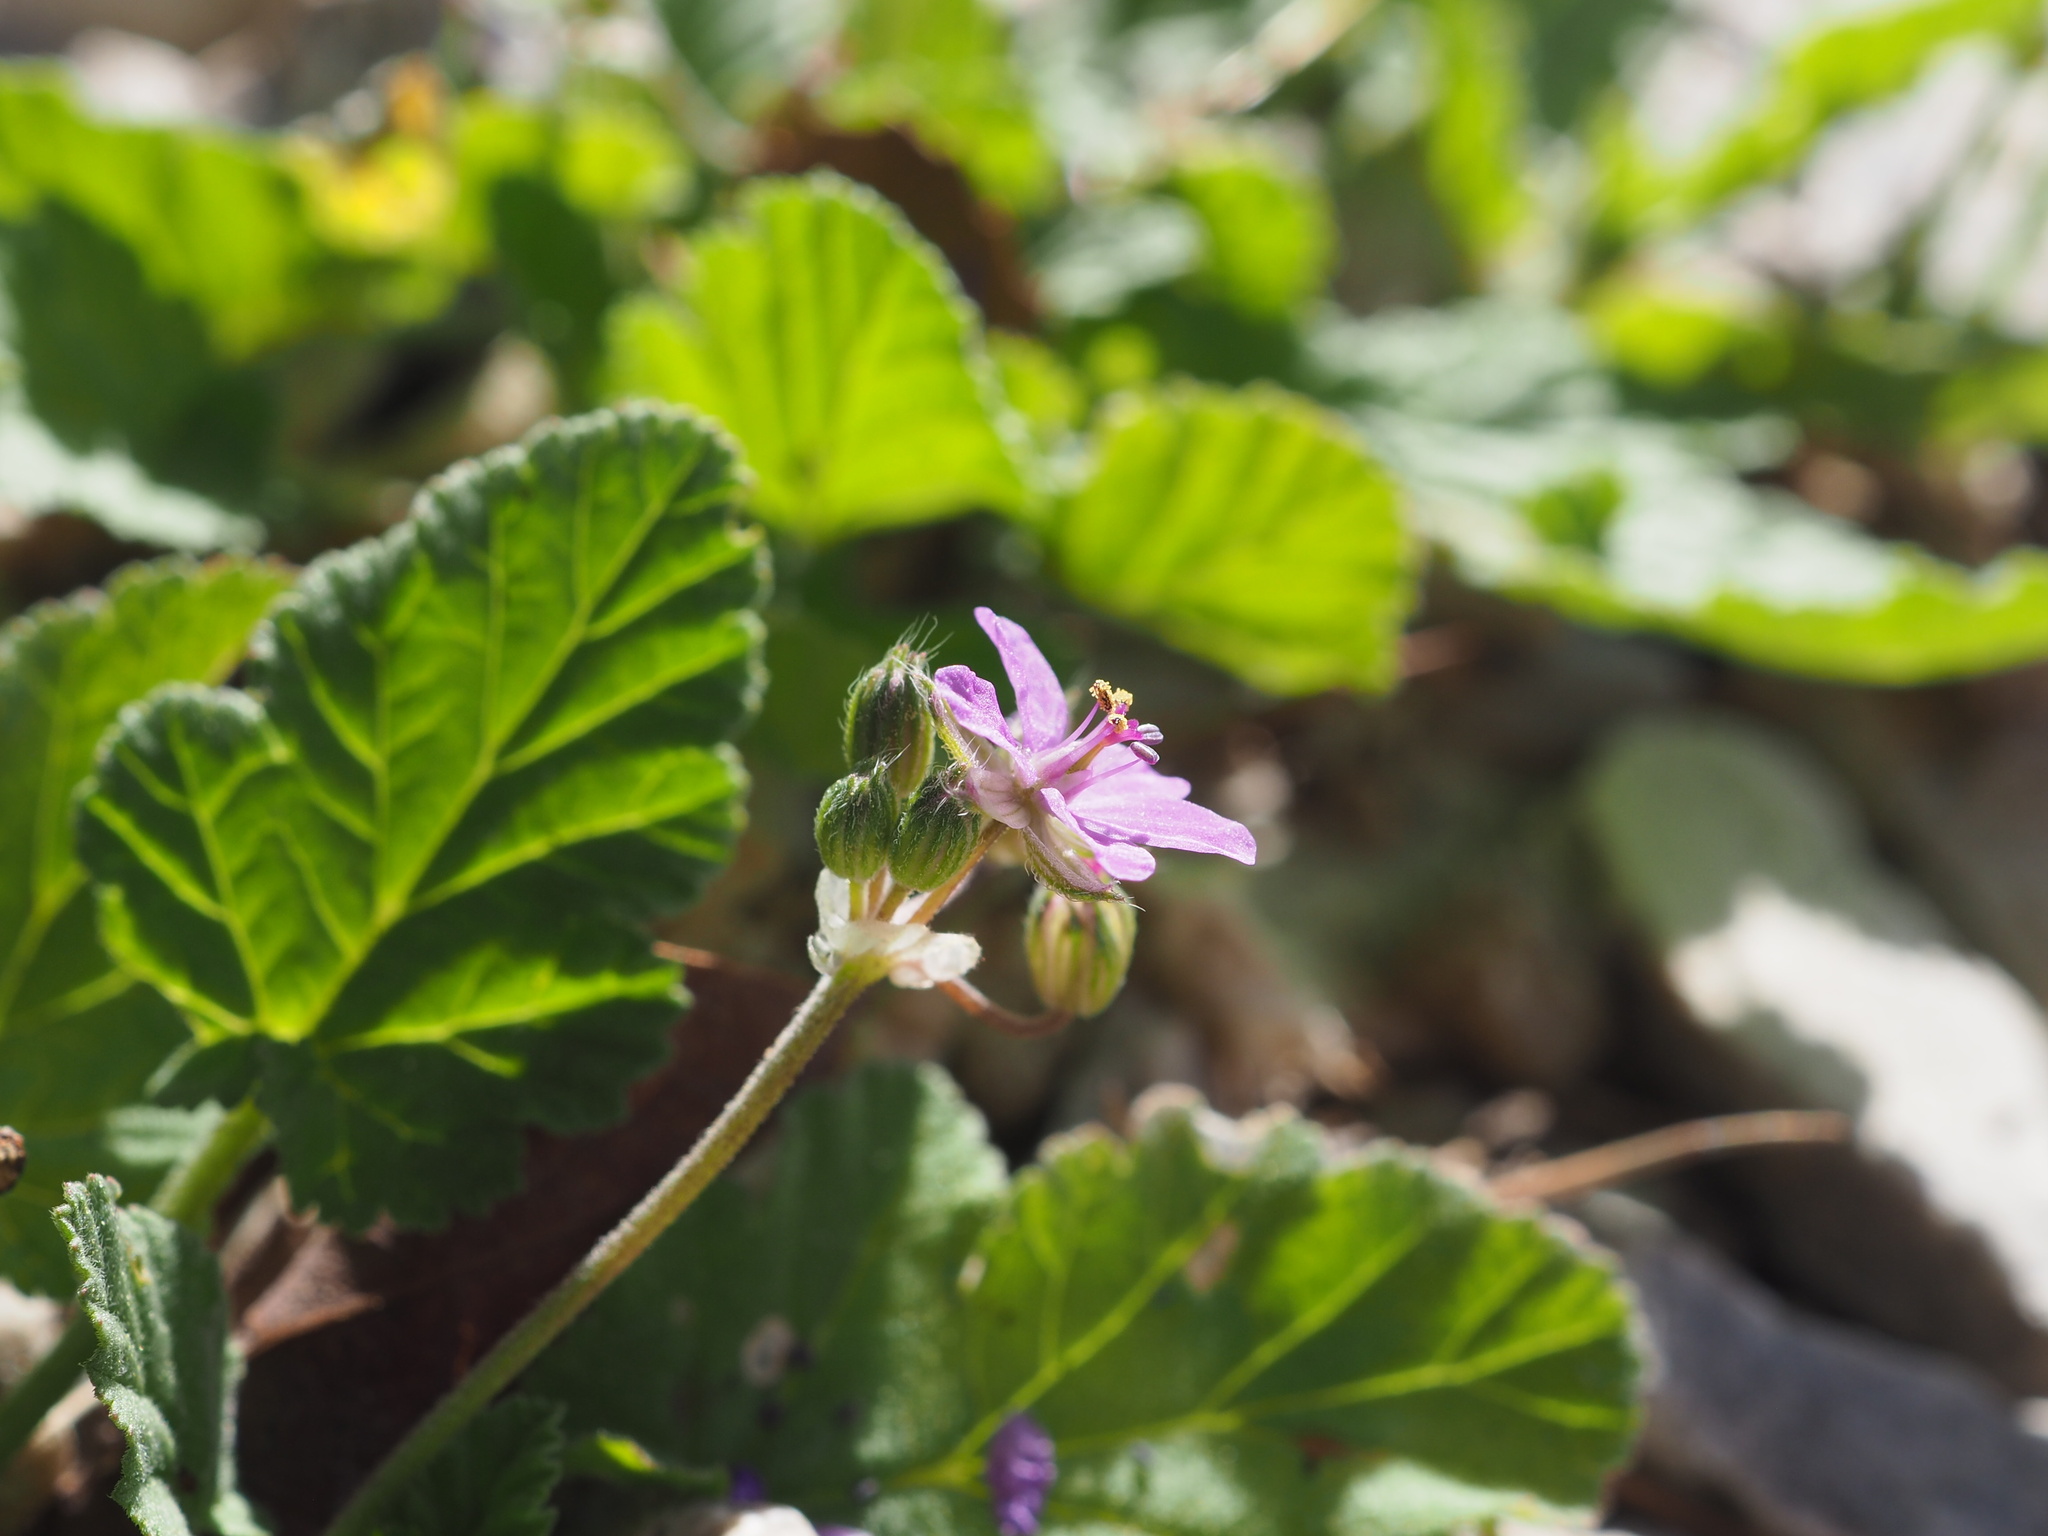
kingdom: Plantae
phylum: Tracheophyta
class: Magnoliopsida
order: Geraniales
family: Geraniaceae
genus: Erodium
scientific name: Erodium malacoides
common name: Soft stork's-bill
